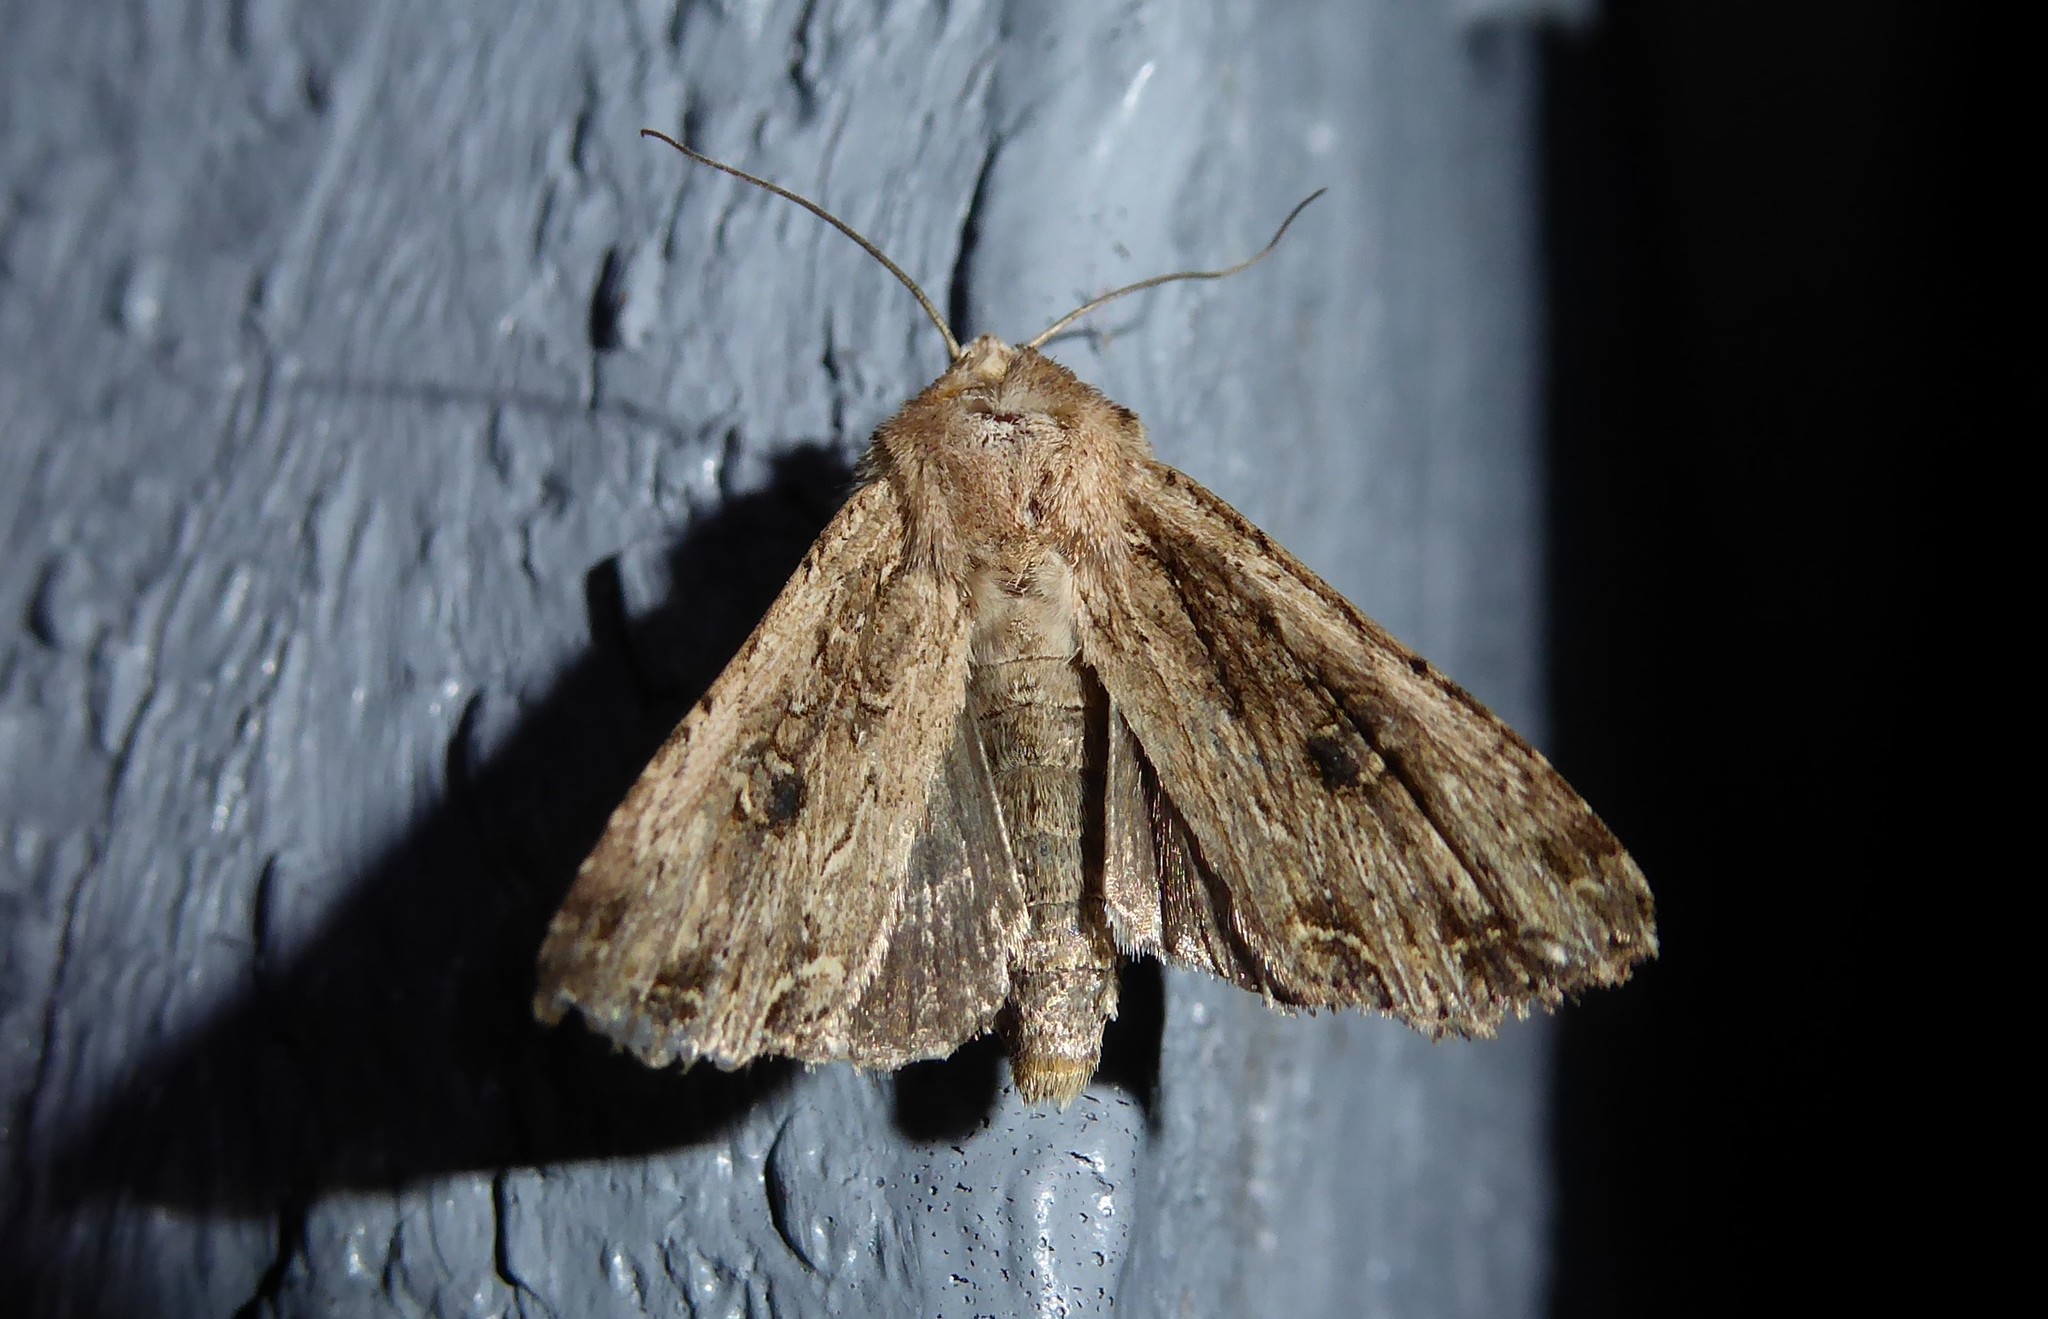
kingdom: Animalia
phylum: Arthropoda
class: Insecta
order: Lepidoptera
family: Noctuidae
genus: Ichneutica
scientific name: Ichneutica lignana
